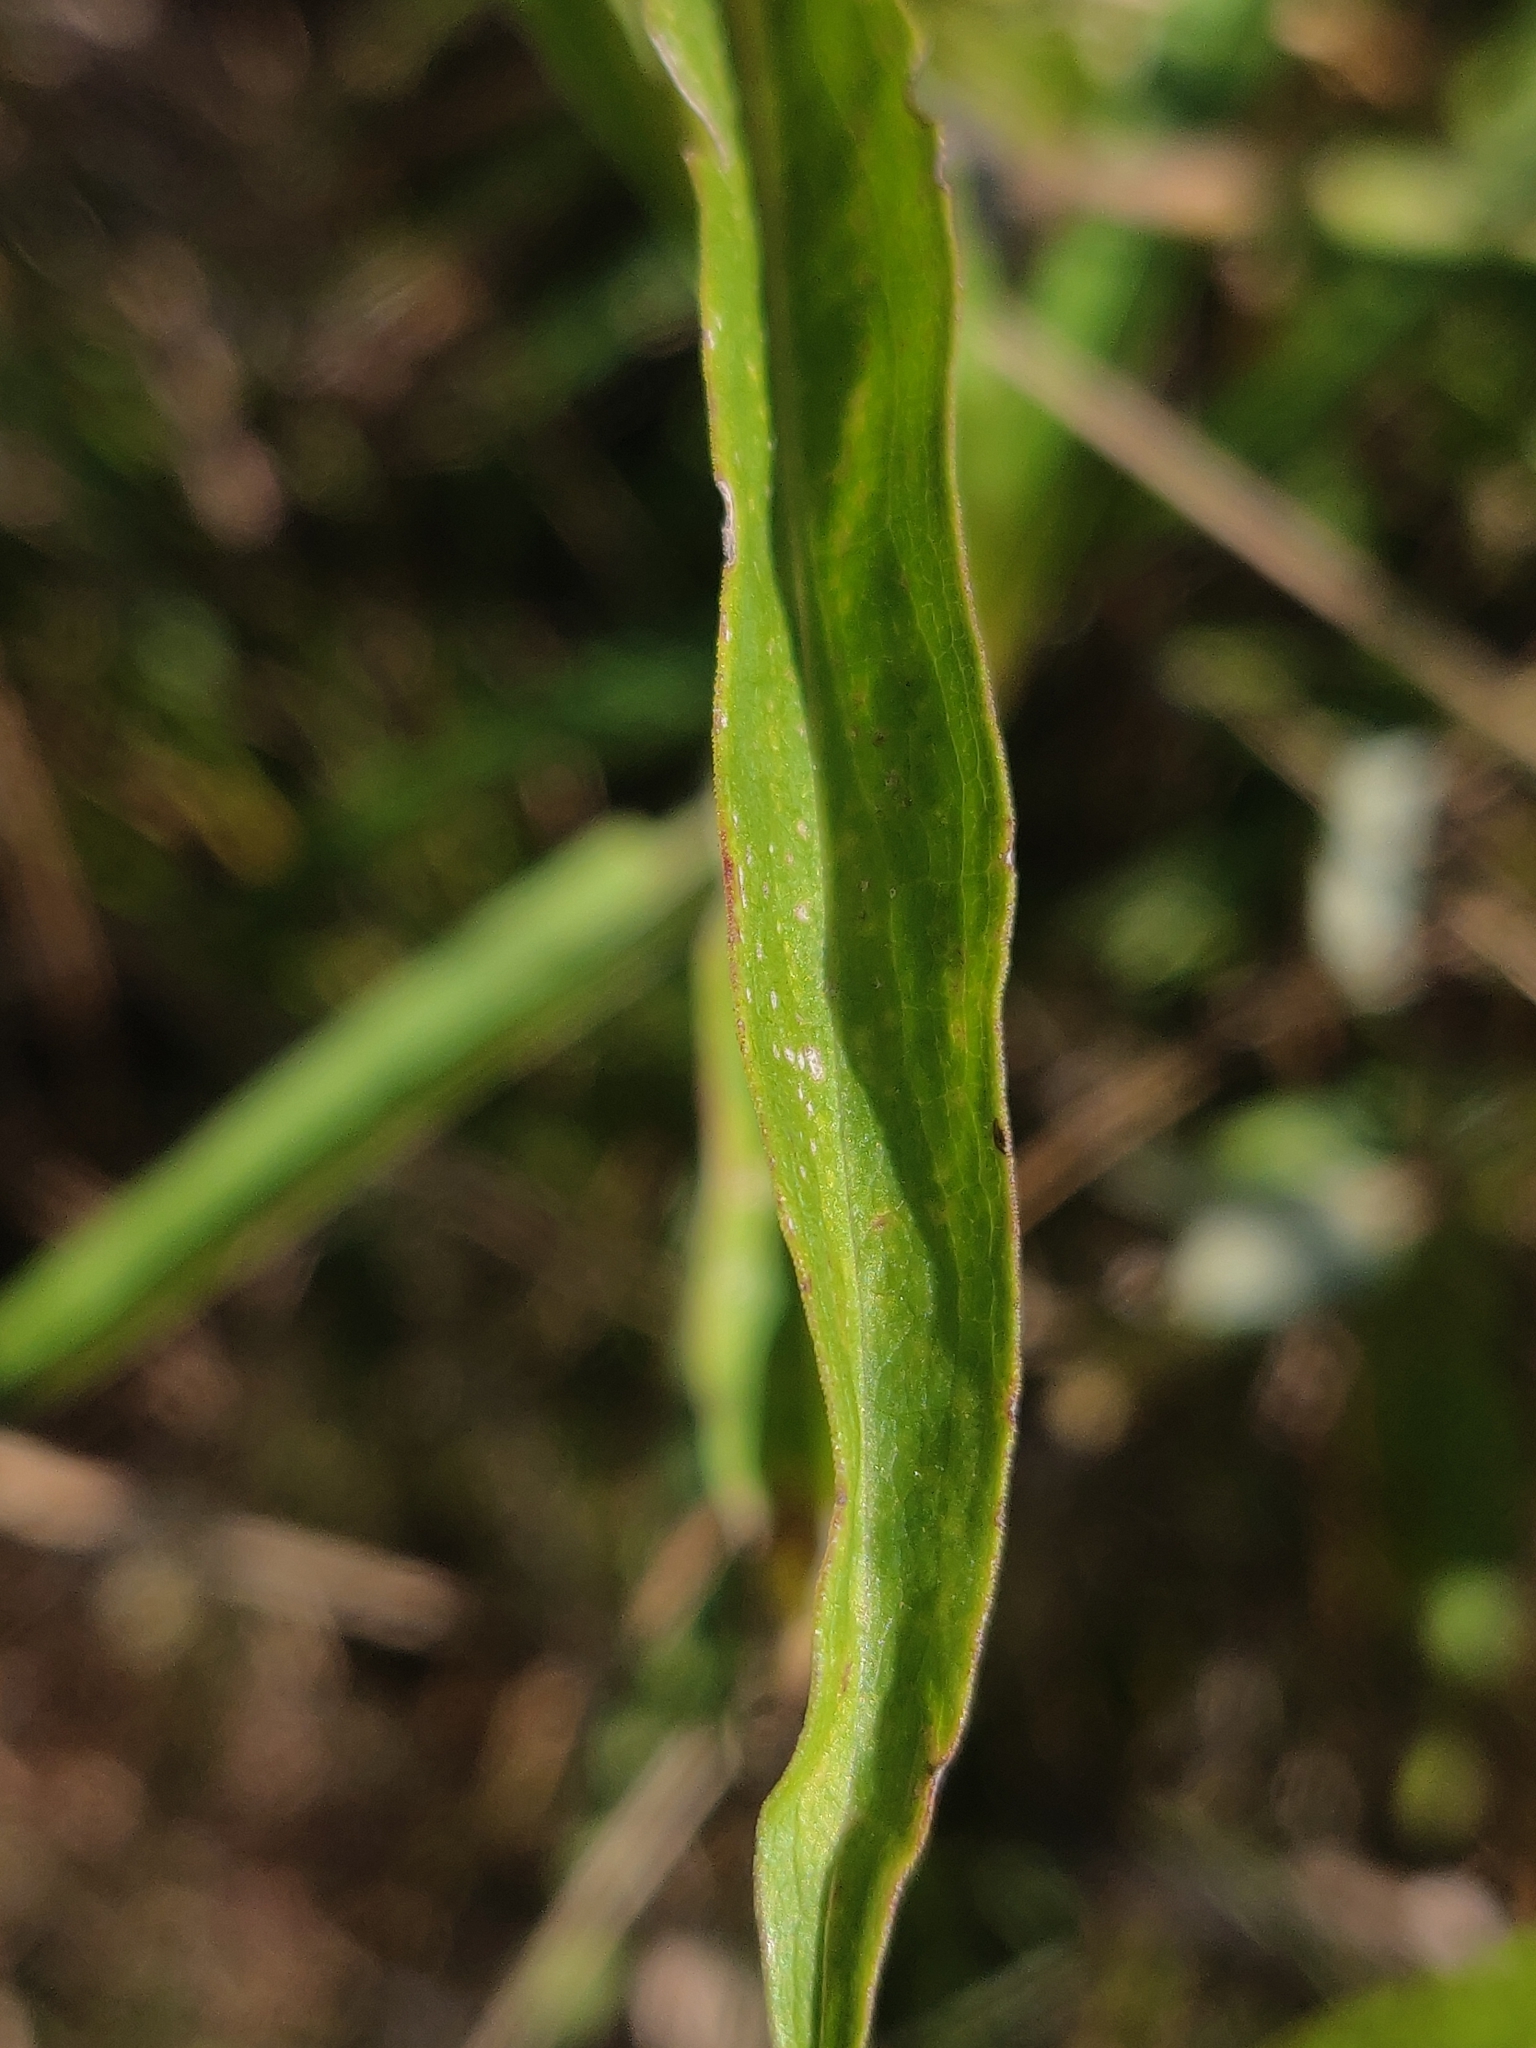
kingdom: Plantae
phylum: Tracheophyta
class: Magnoliopsida
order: Asterales
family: Asteraceae
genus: Solidago
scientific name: Solidago riddellii
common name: Riddell's goldenrod
